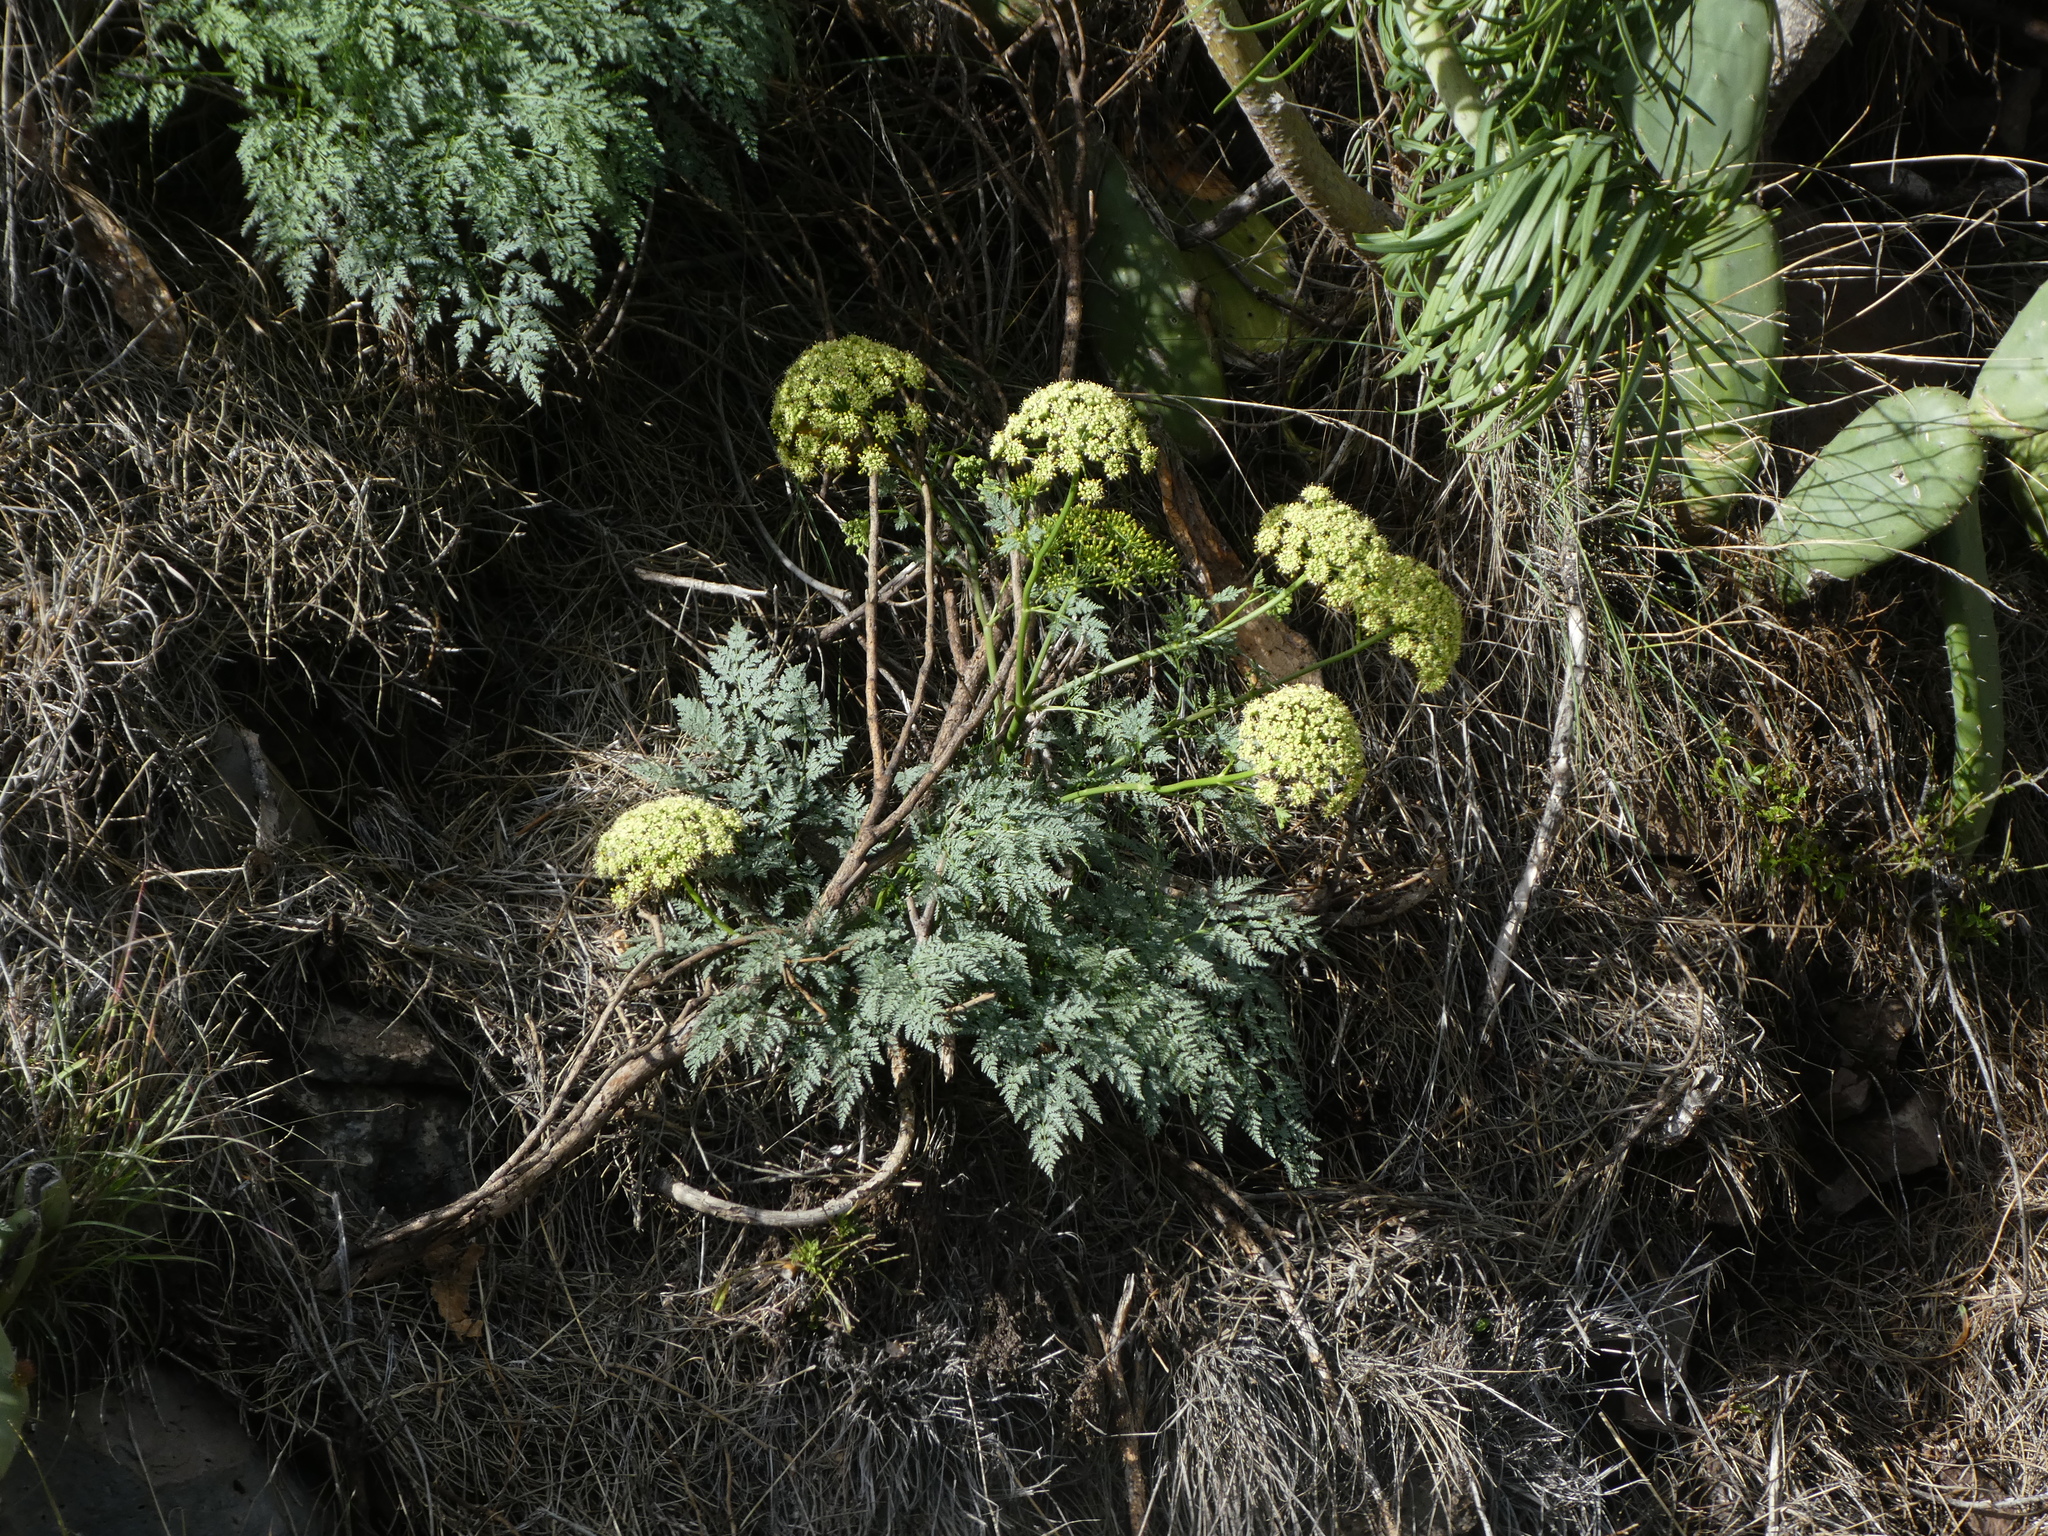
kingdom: Plantae
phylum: Tracheophyta
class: Magnoliopsida
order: Apiales
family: Apiaceae
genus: Todaroa
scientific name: Todaroa aurea
